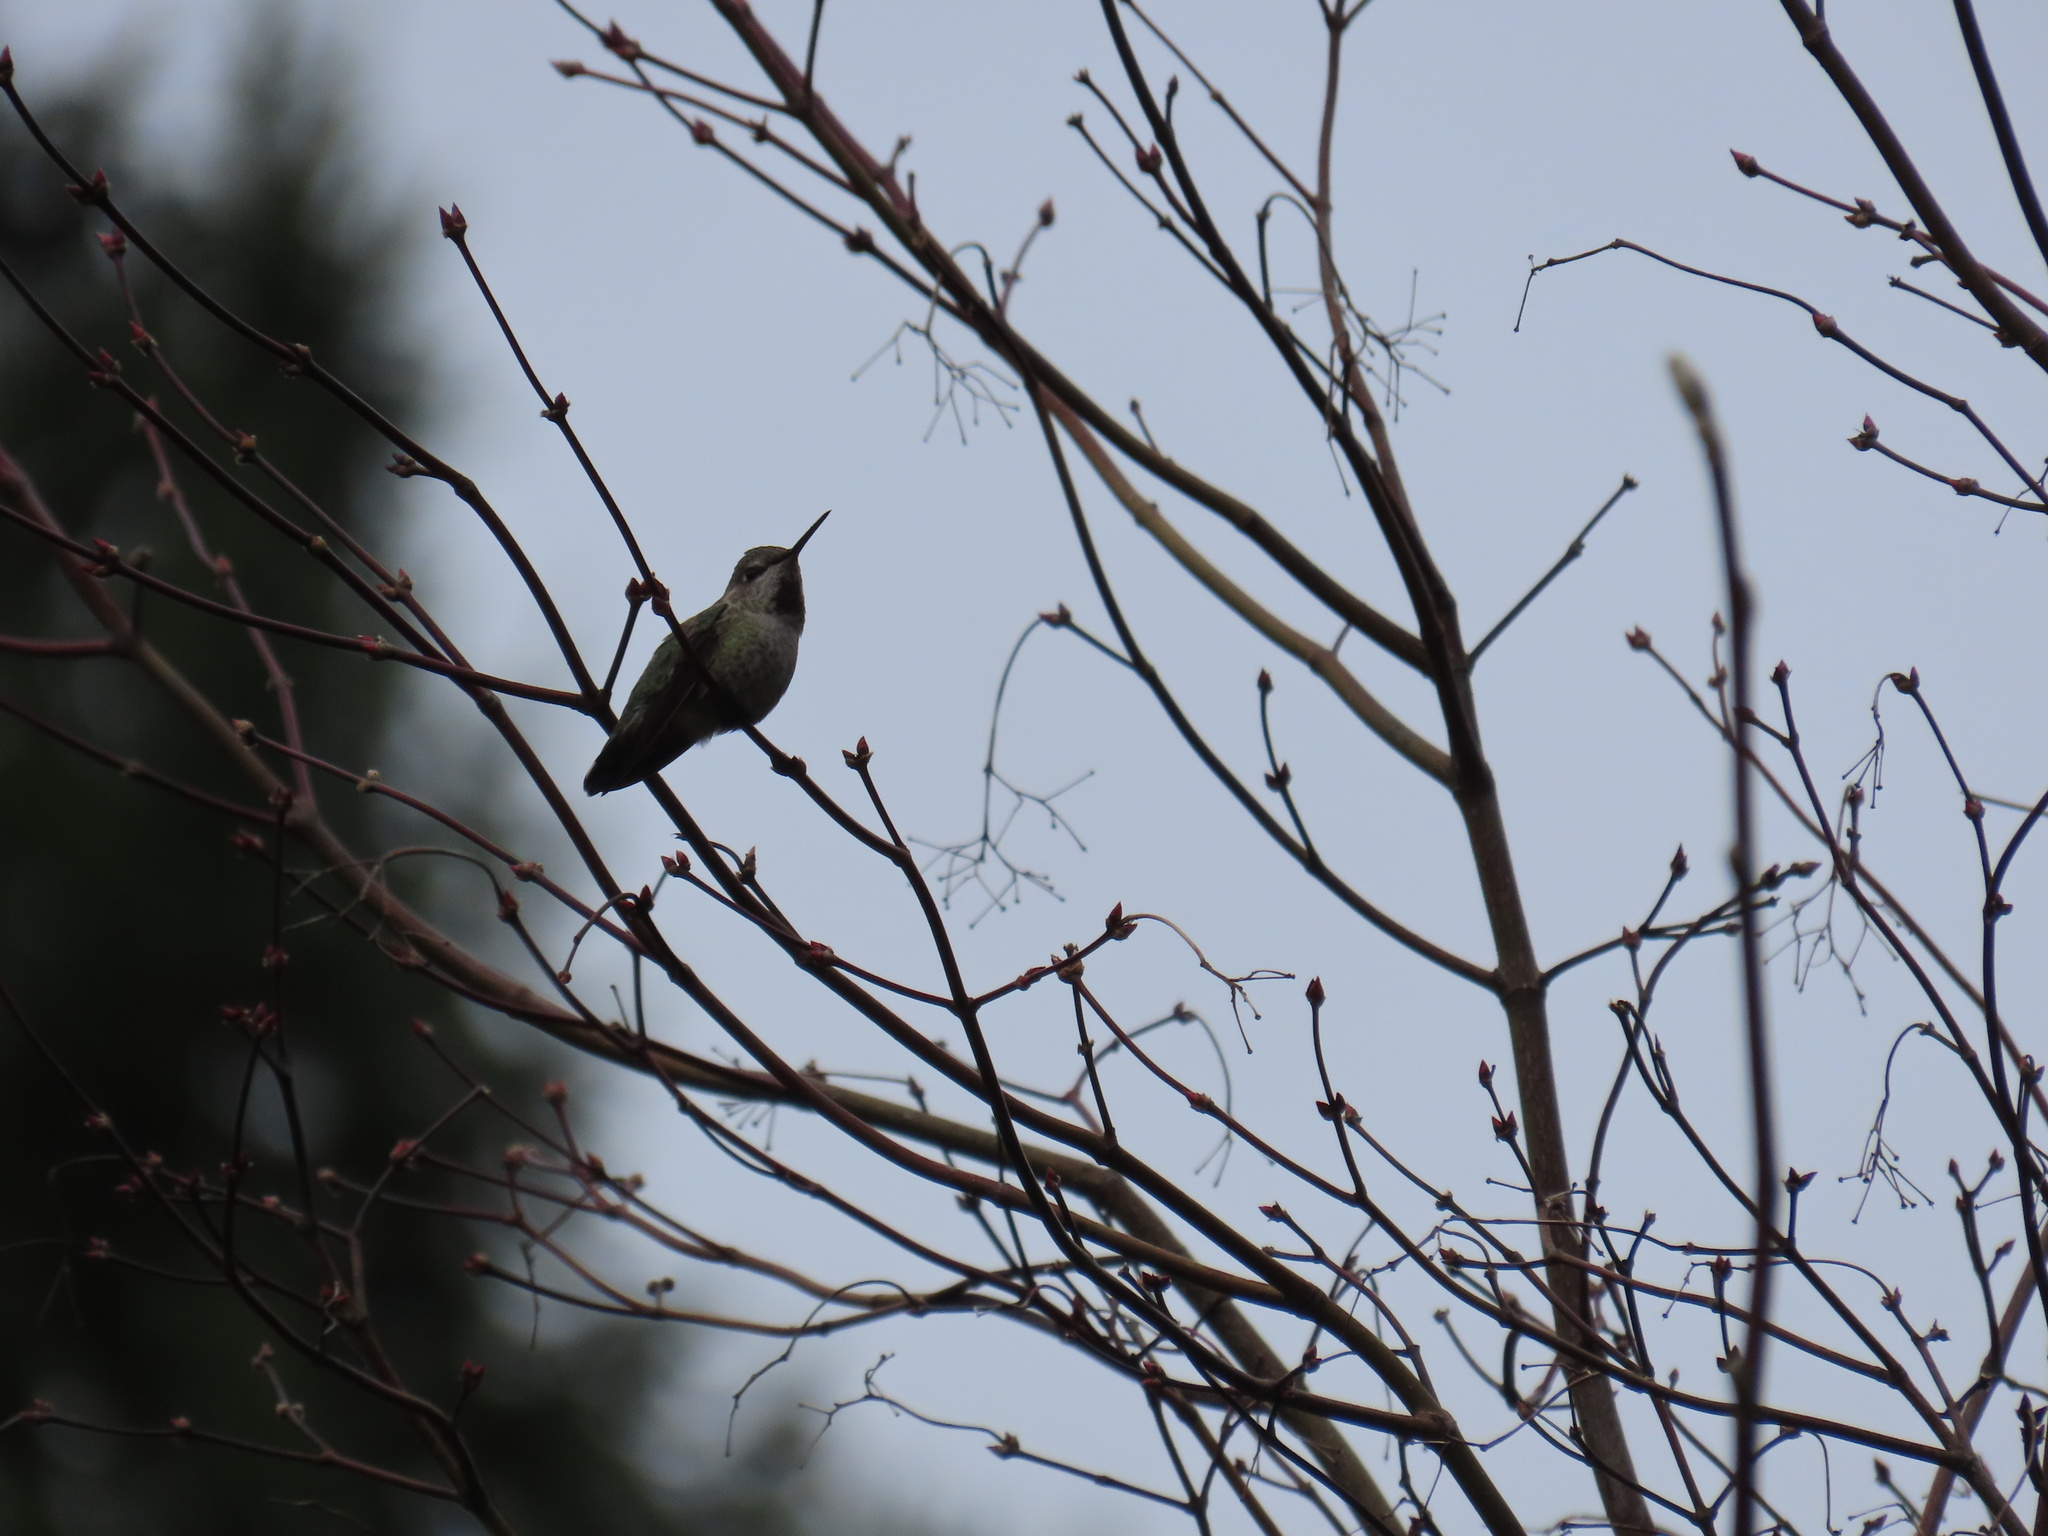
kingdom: Animalia
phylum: Chordata
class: Aves
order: Apodiformes
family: Trochilidae
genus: Calypte
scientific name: Calypte anna
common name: Anna's hummingbird
